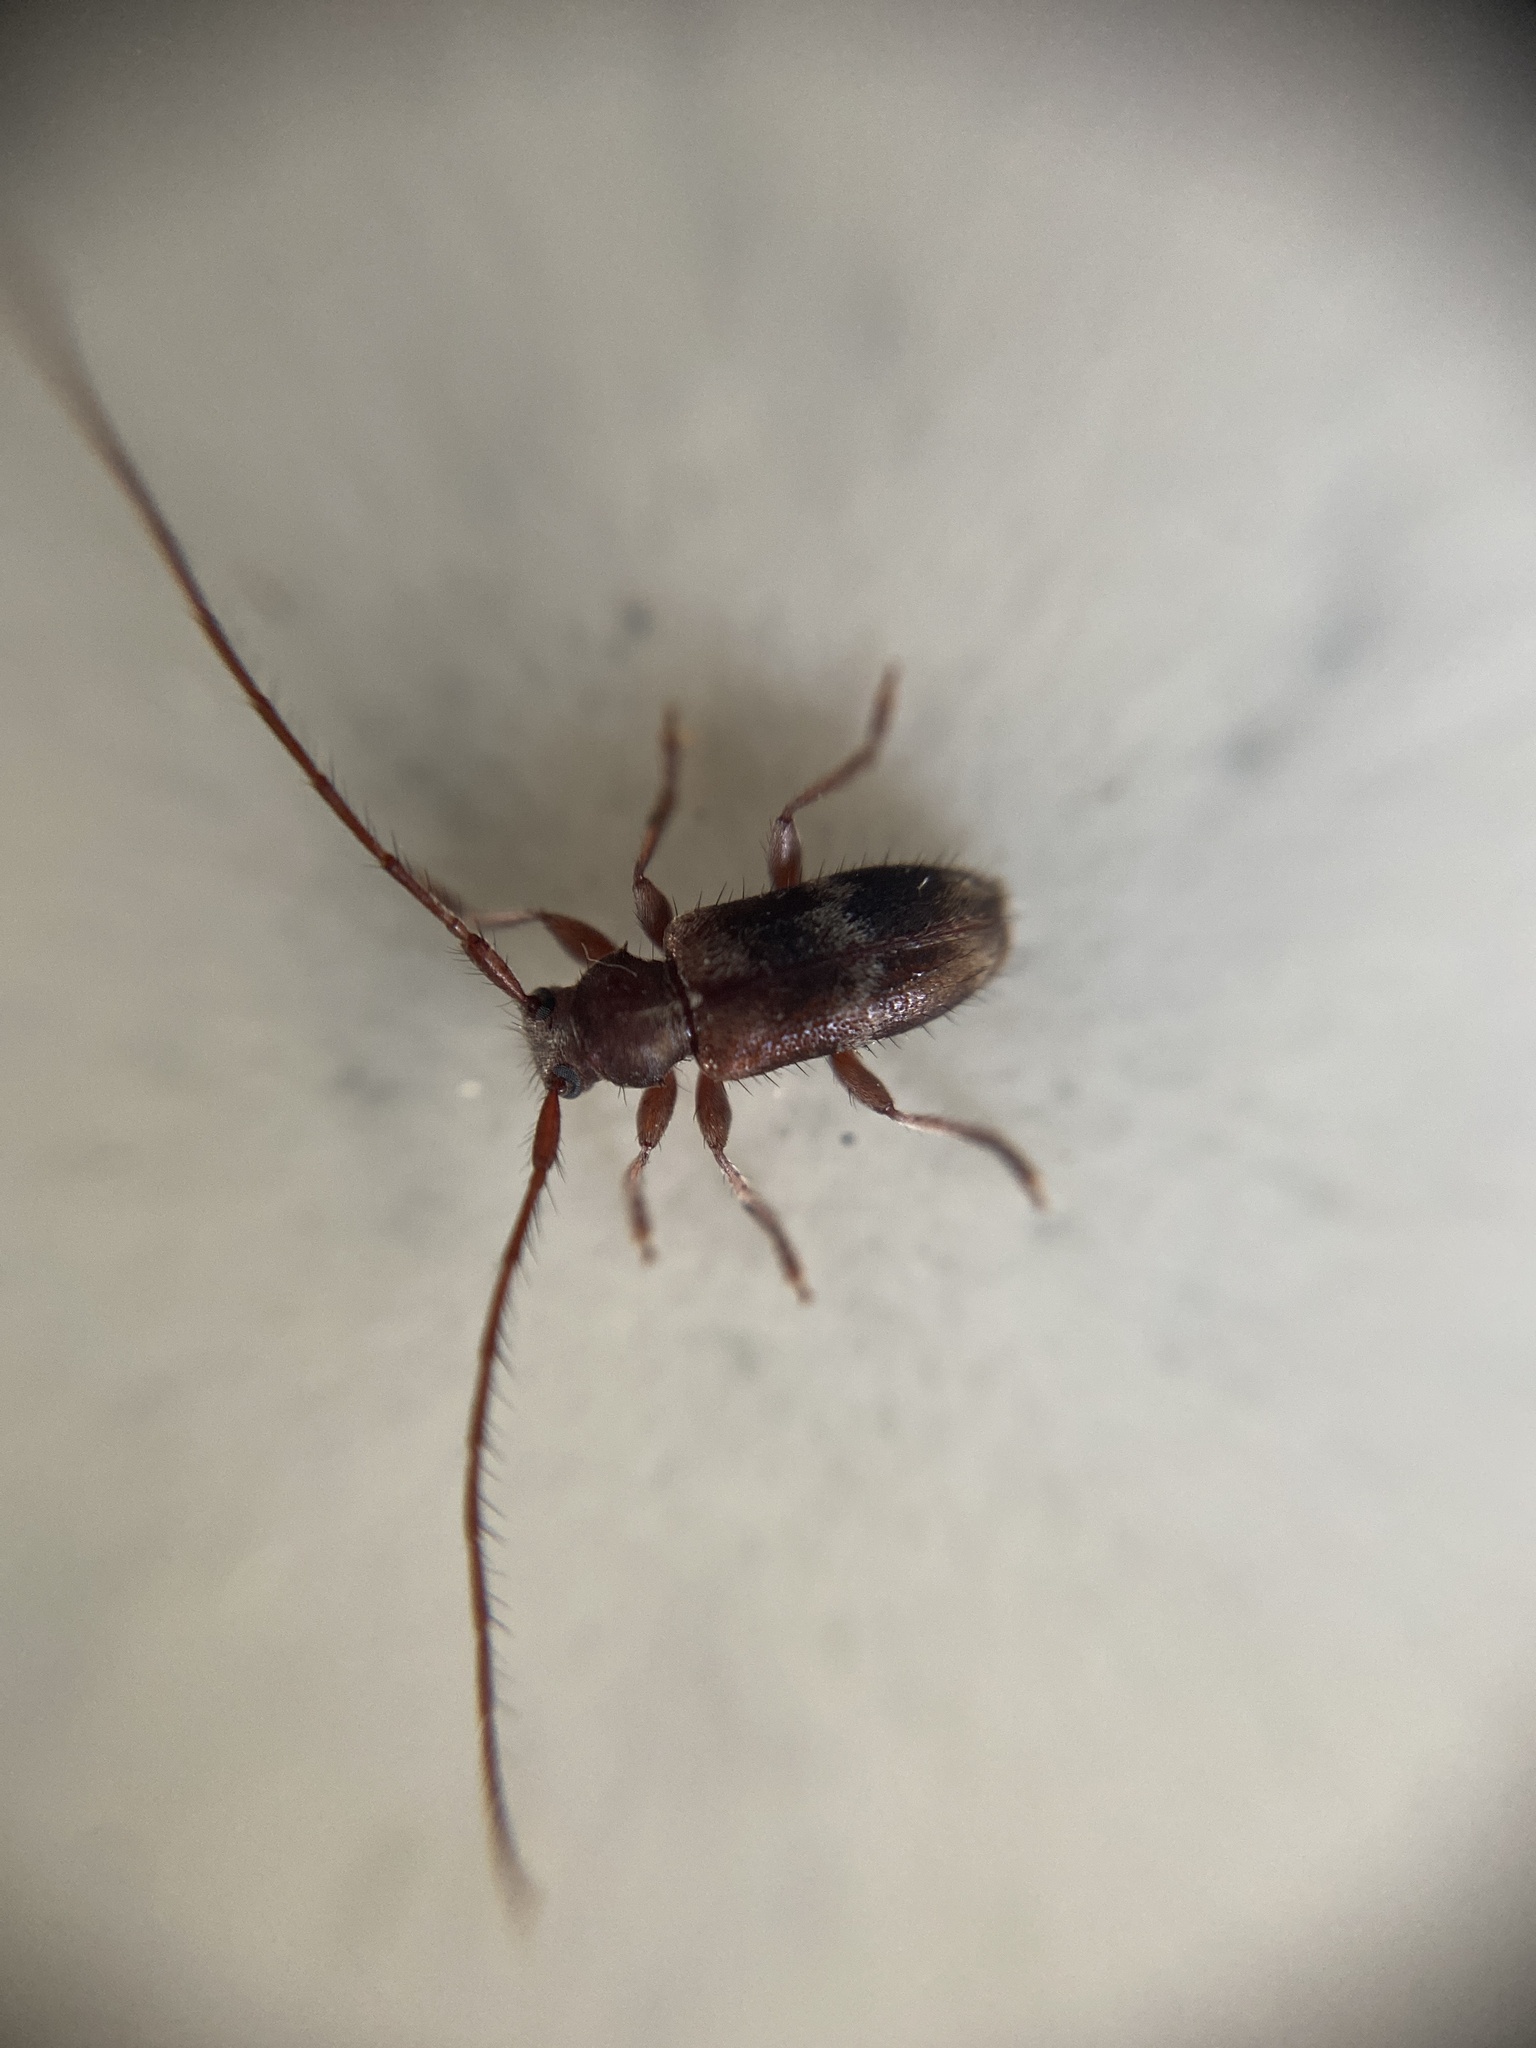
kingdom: Animalia
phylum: Arthropoda
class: Insecta
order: Coleoptera
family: Cerambycidae
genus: Exocentrus
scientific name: Exocentrus lusitanus
